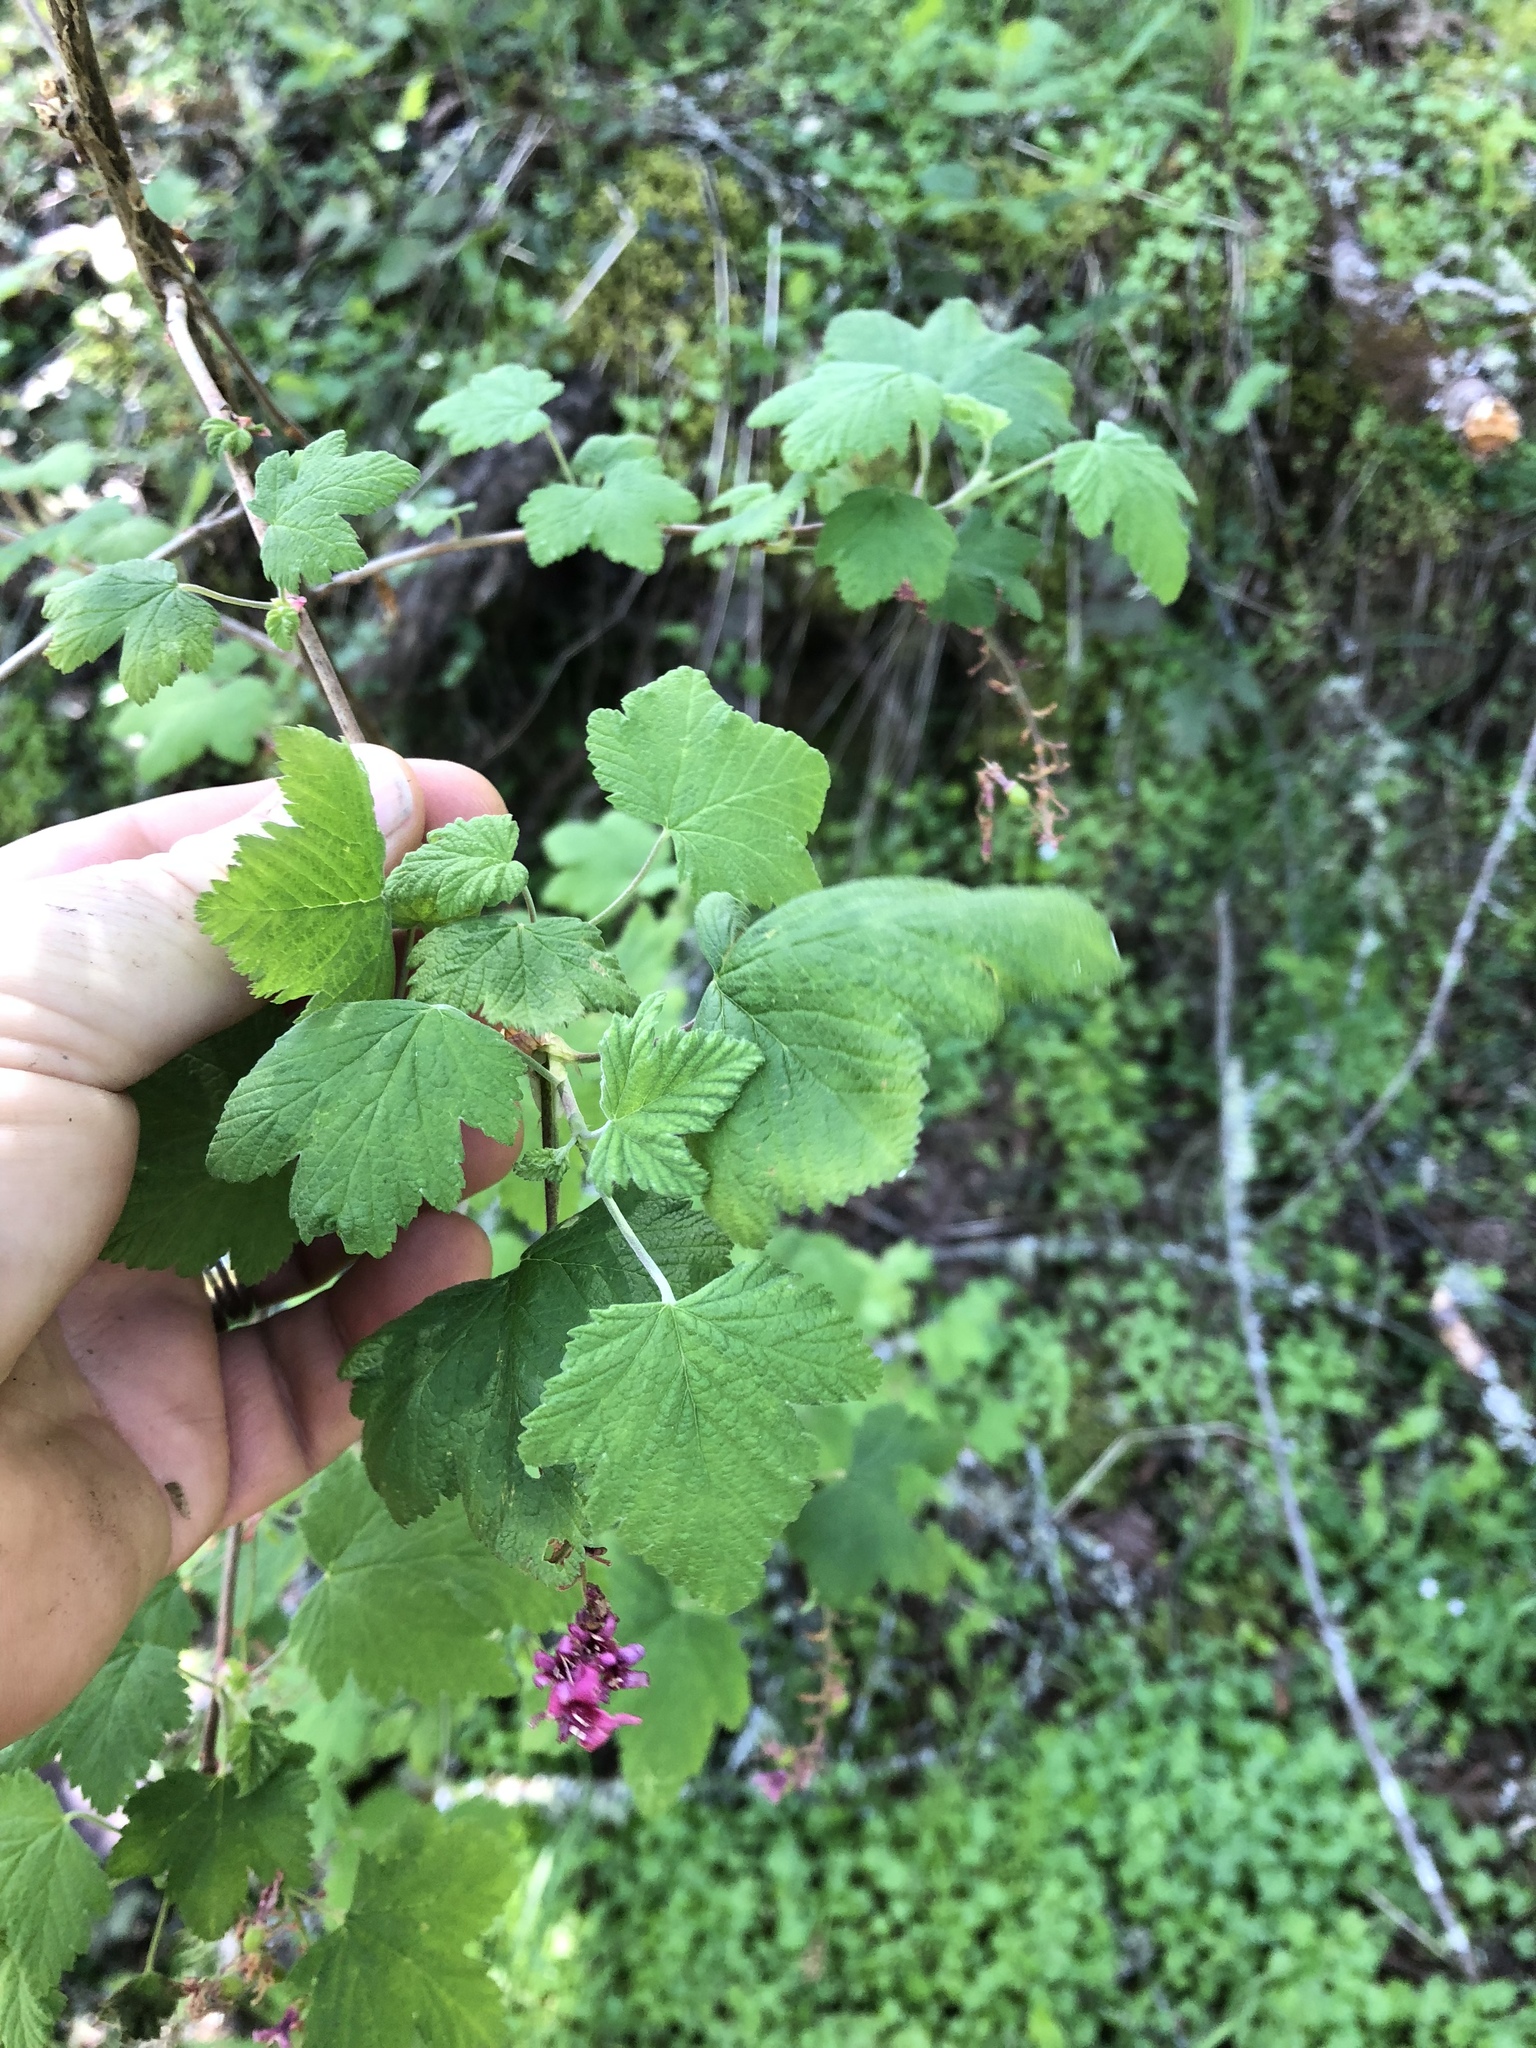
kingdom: Plantae
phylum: Tracheophyta
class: Magnoliopsida
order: Saxifragales
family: Grossulariaceae
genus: Ribes
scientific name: Ribes sanguineum
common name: Flowering currant
